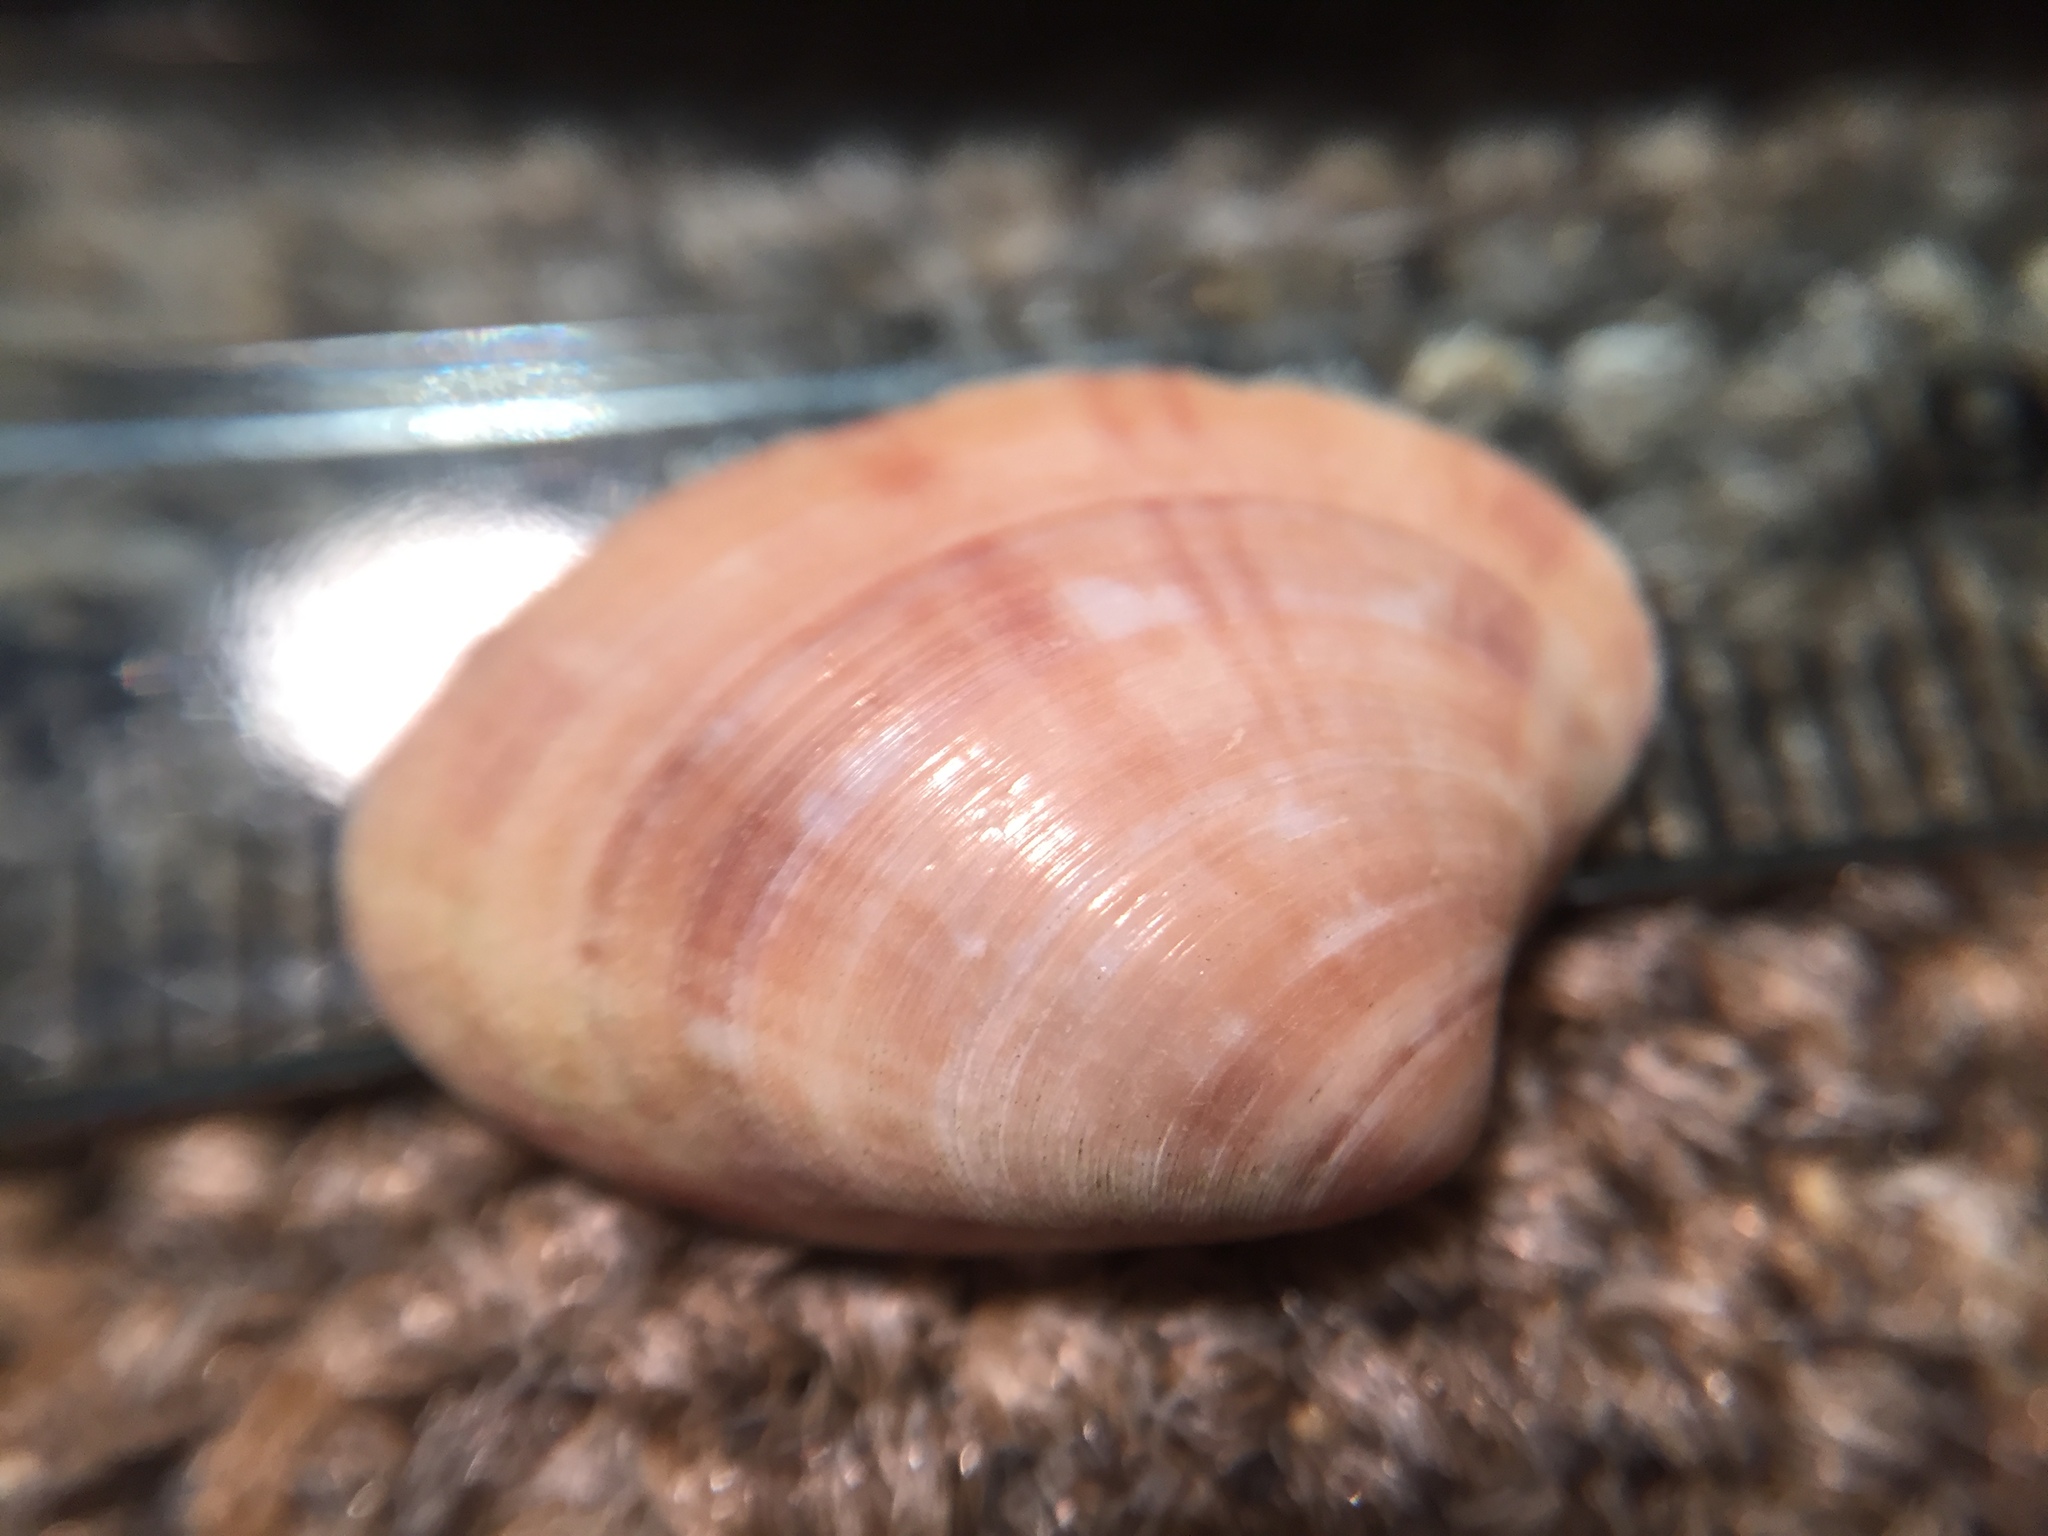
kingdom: Animalia
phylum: Mollusca
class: Bivalvia
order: Venerida
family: Veneridae
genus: Notocallista
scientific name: Notocallista multistriata
